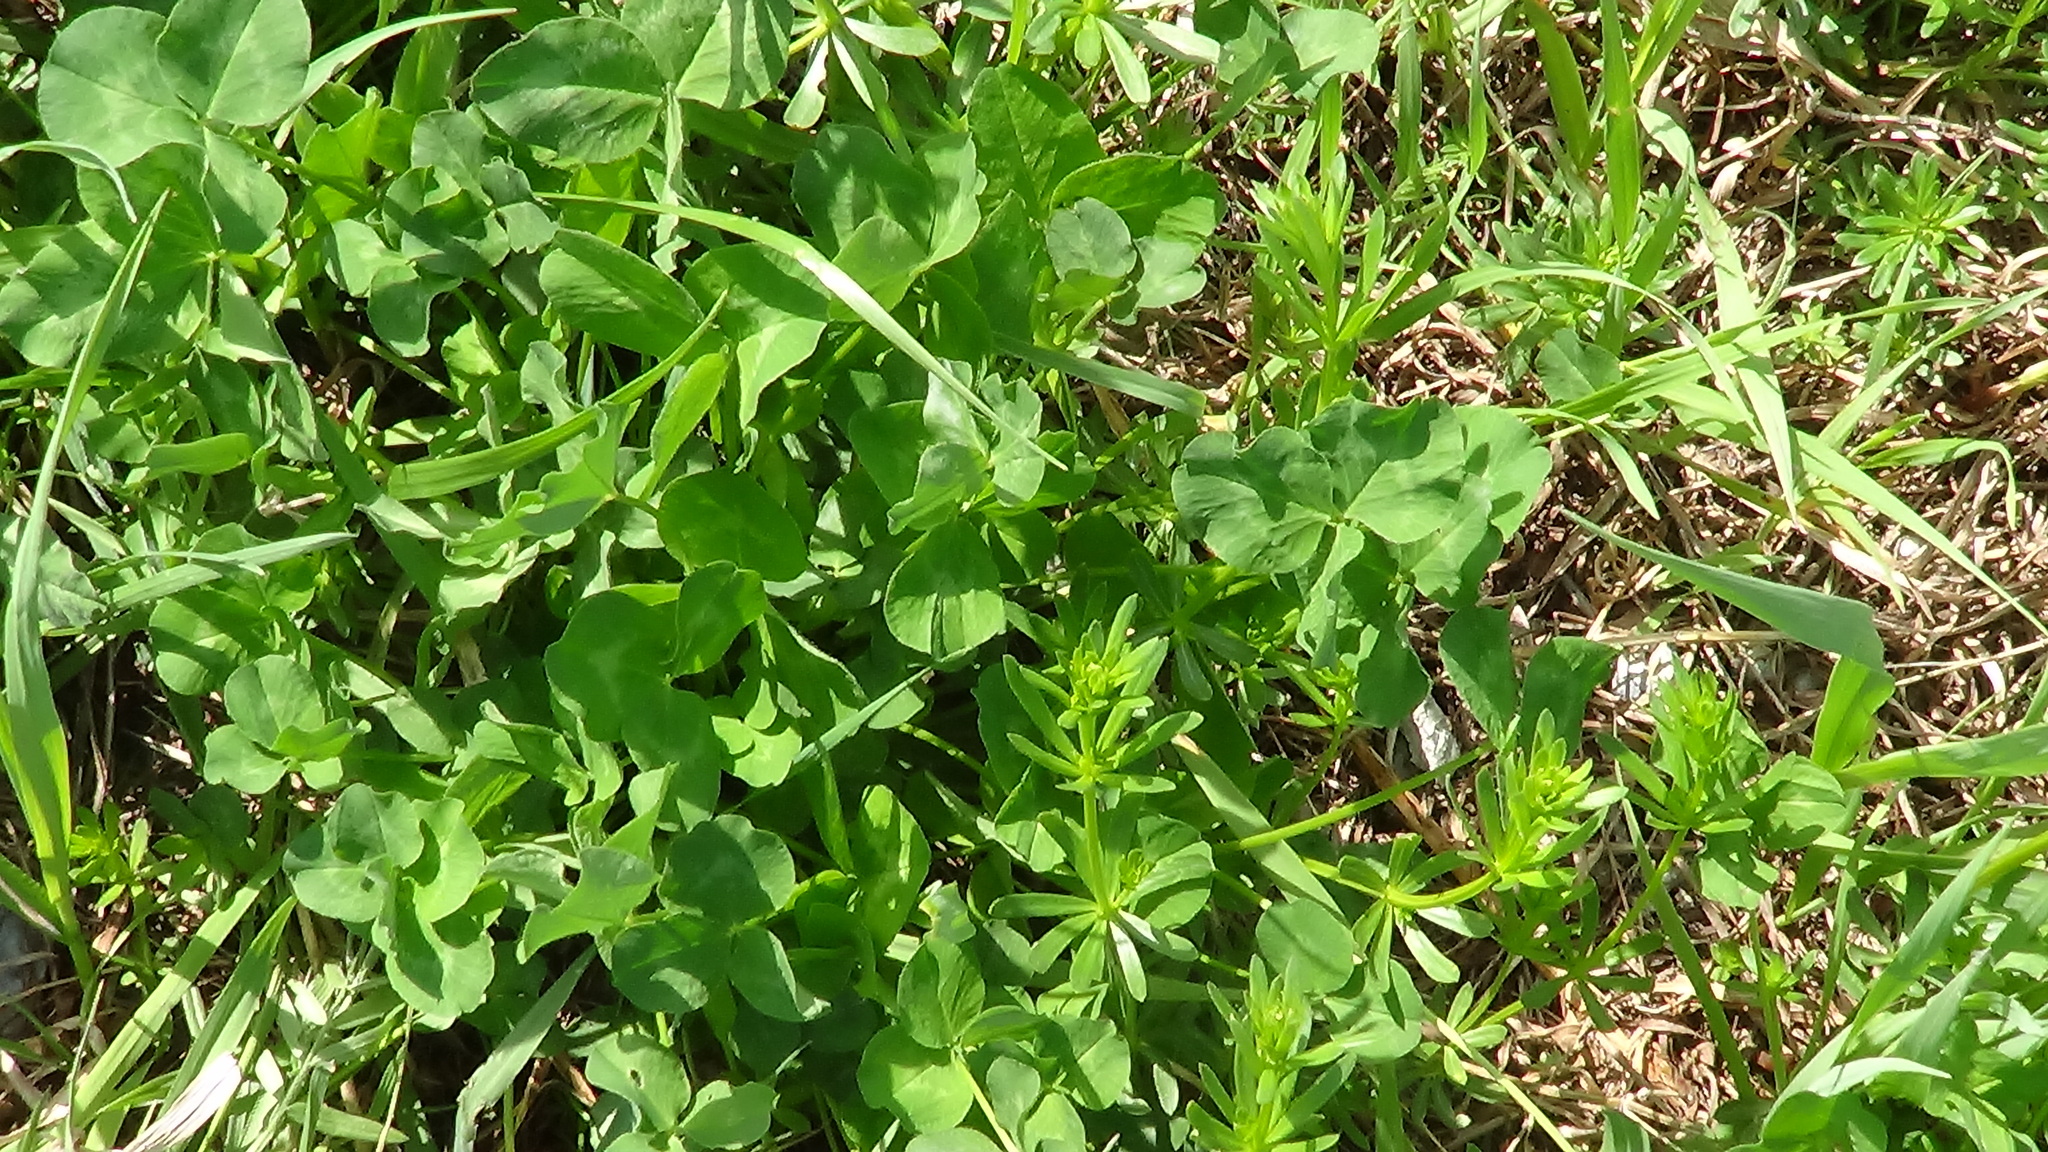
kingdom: Plantae
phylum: Tracheophyta
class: Magnoliopsida
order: Fabales
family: Fabaceae
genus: Trifolium
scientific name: Trifolium pratense
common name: Red clover
